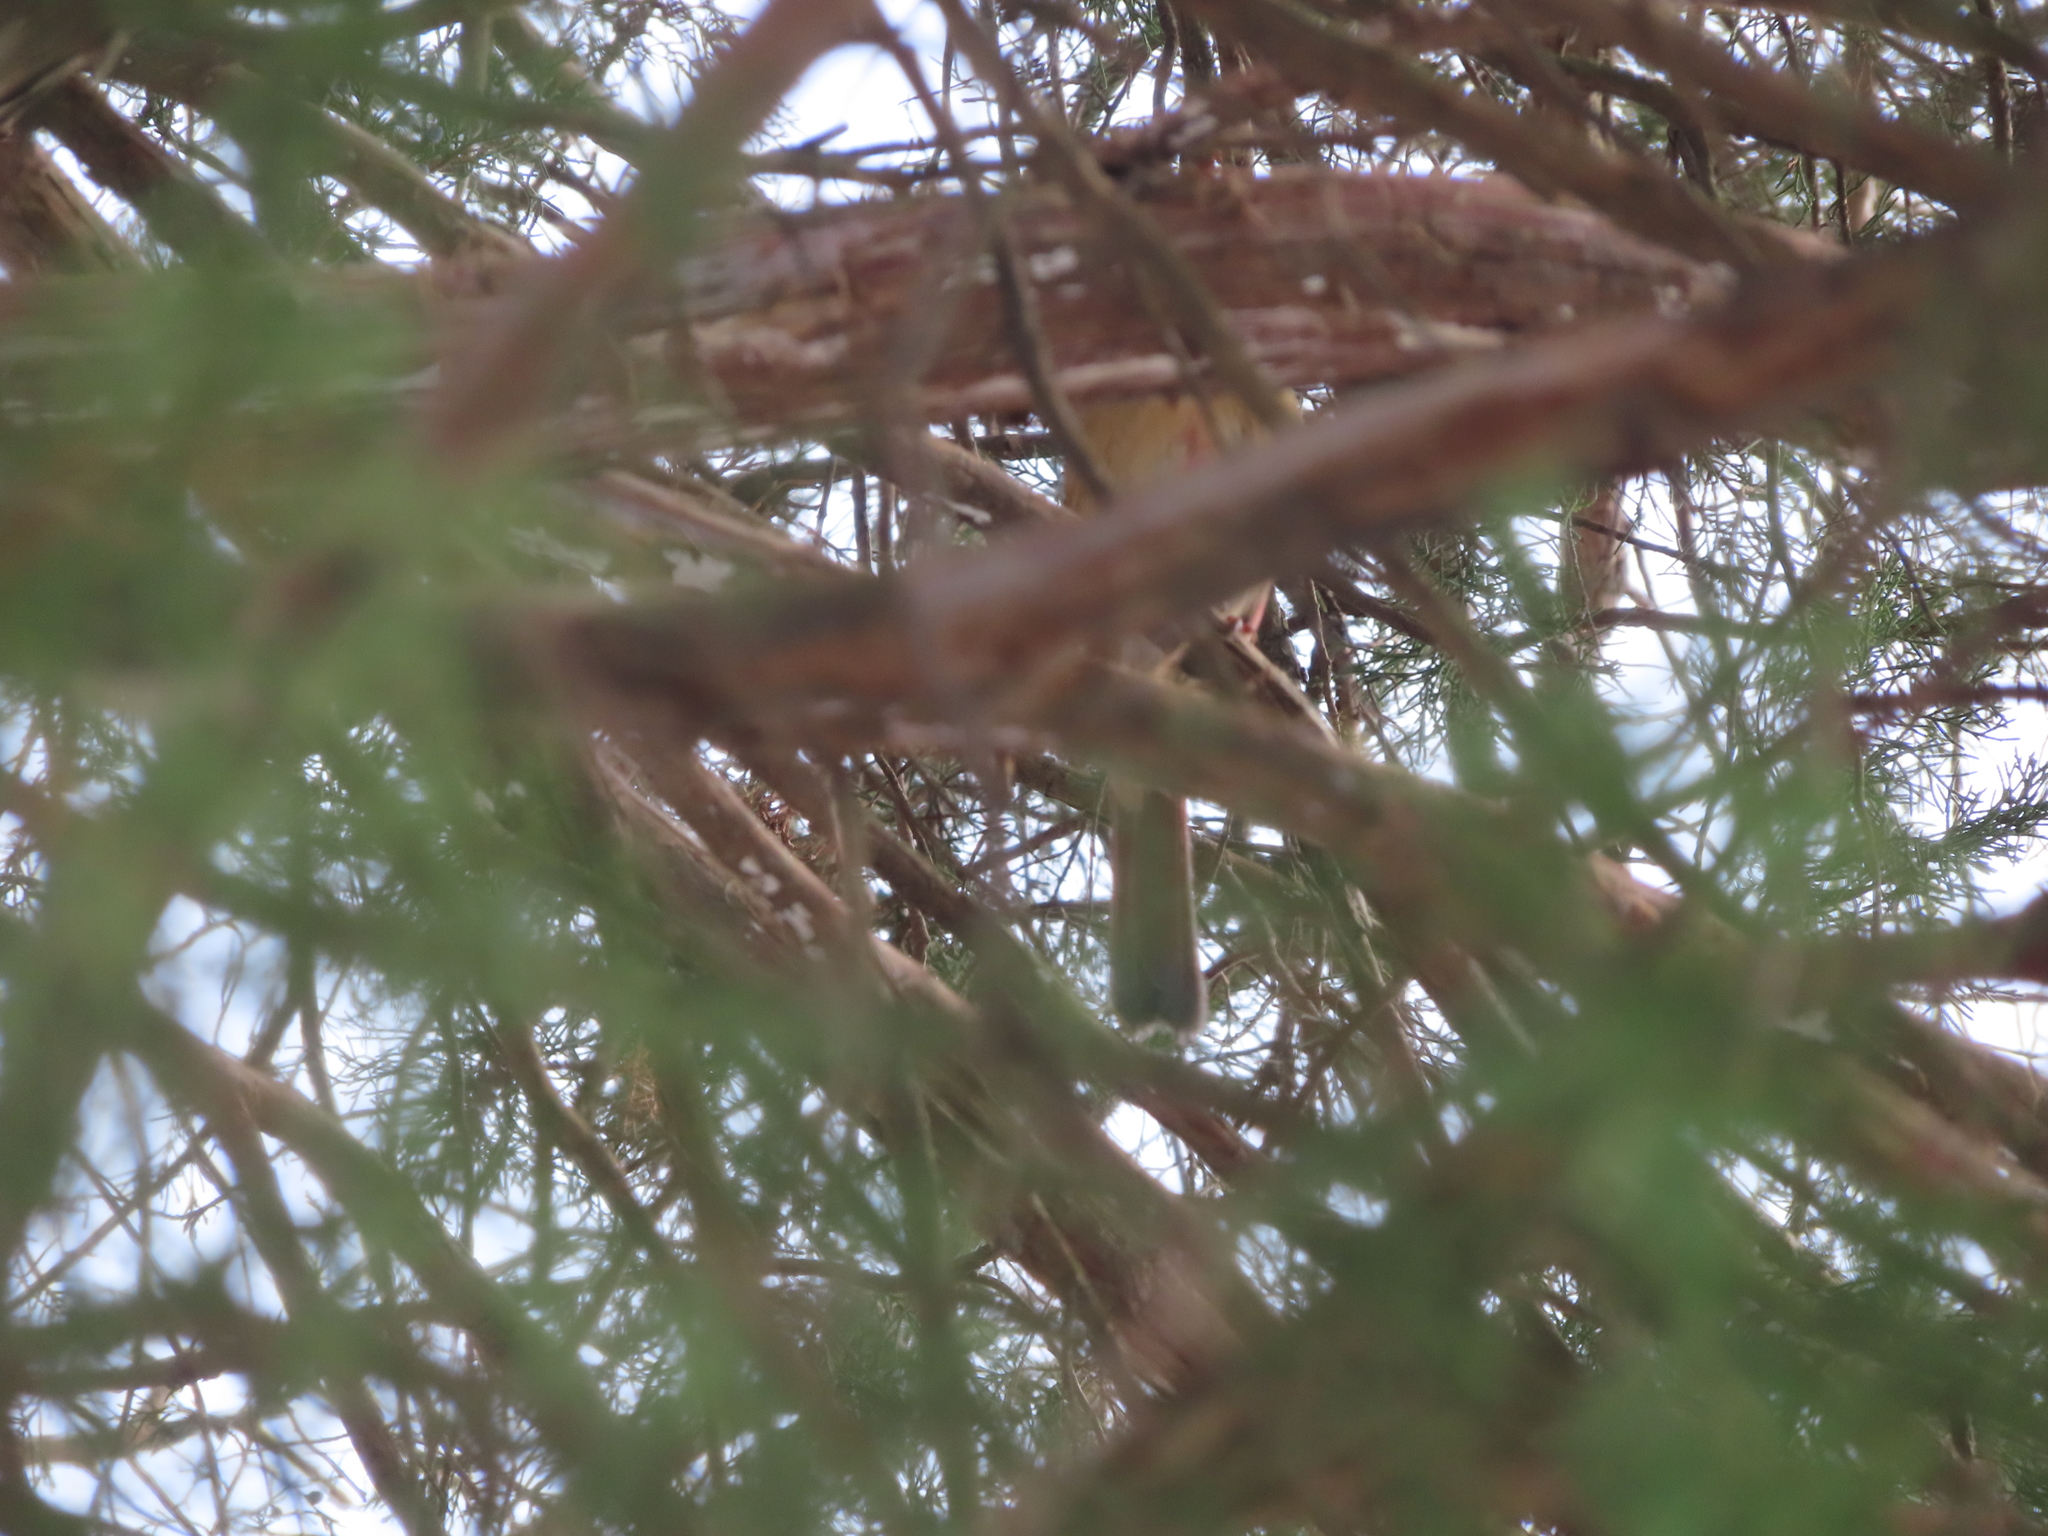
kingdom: Animalia
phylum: Chordata
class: Aves
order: Passeriformes
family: Cardinalidae
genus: Cardinalis
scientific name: Cardinalis cardinalis
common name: Northern cardinal
